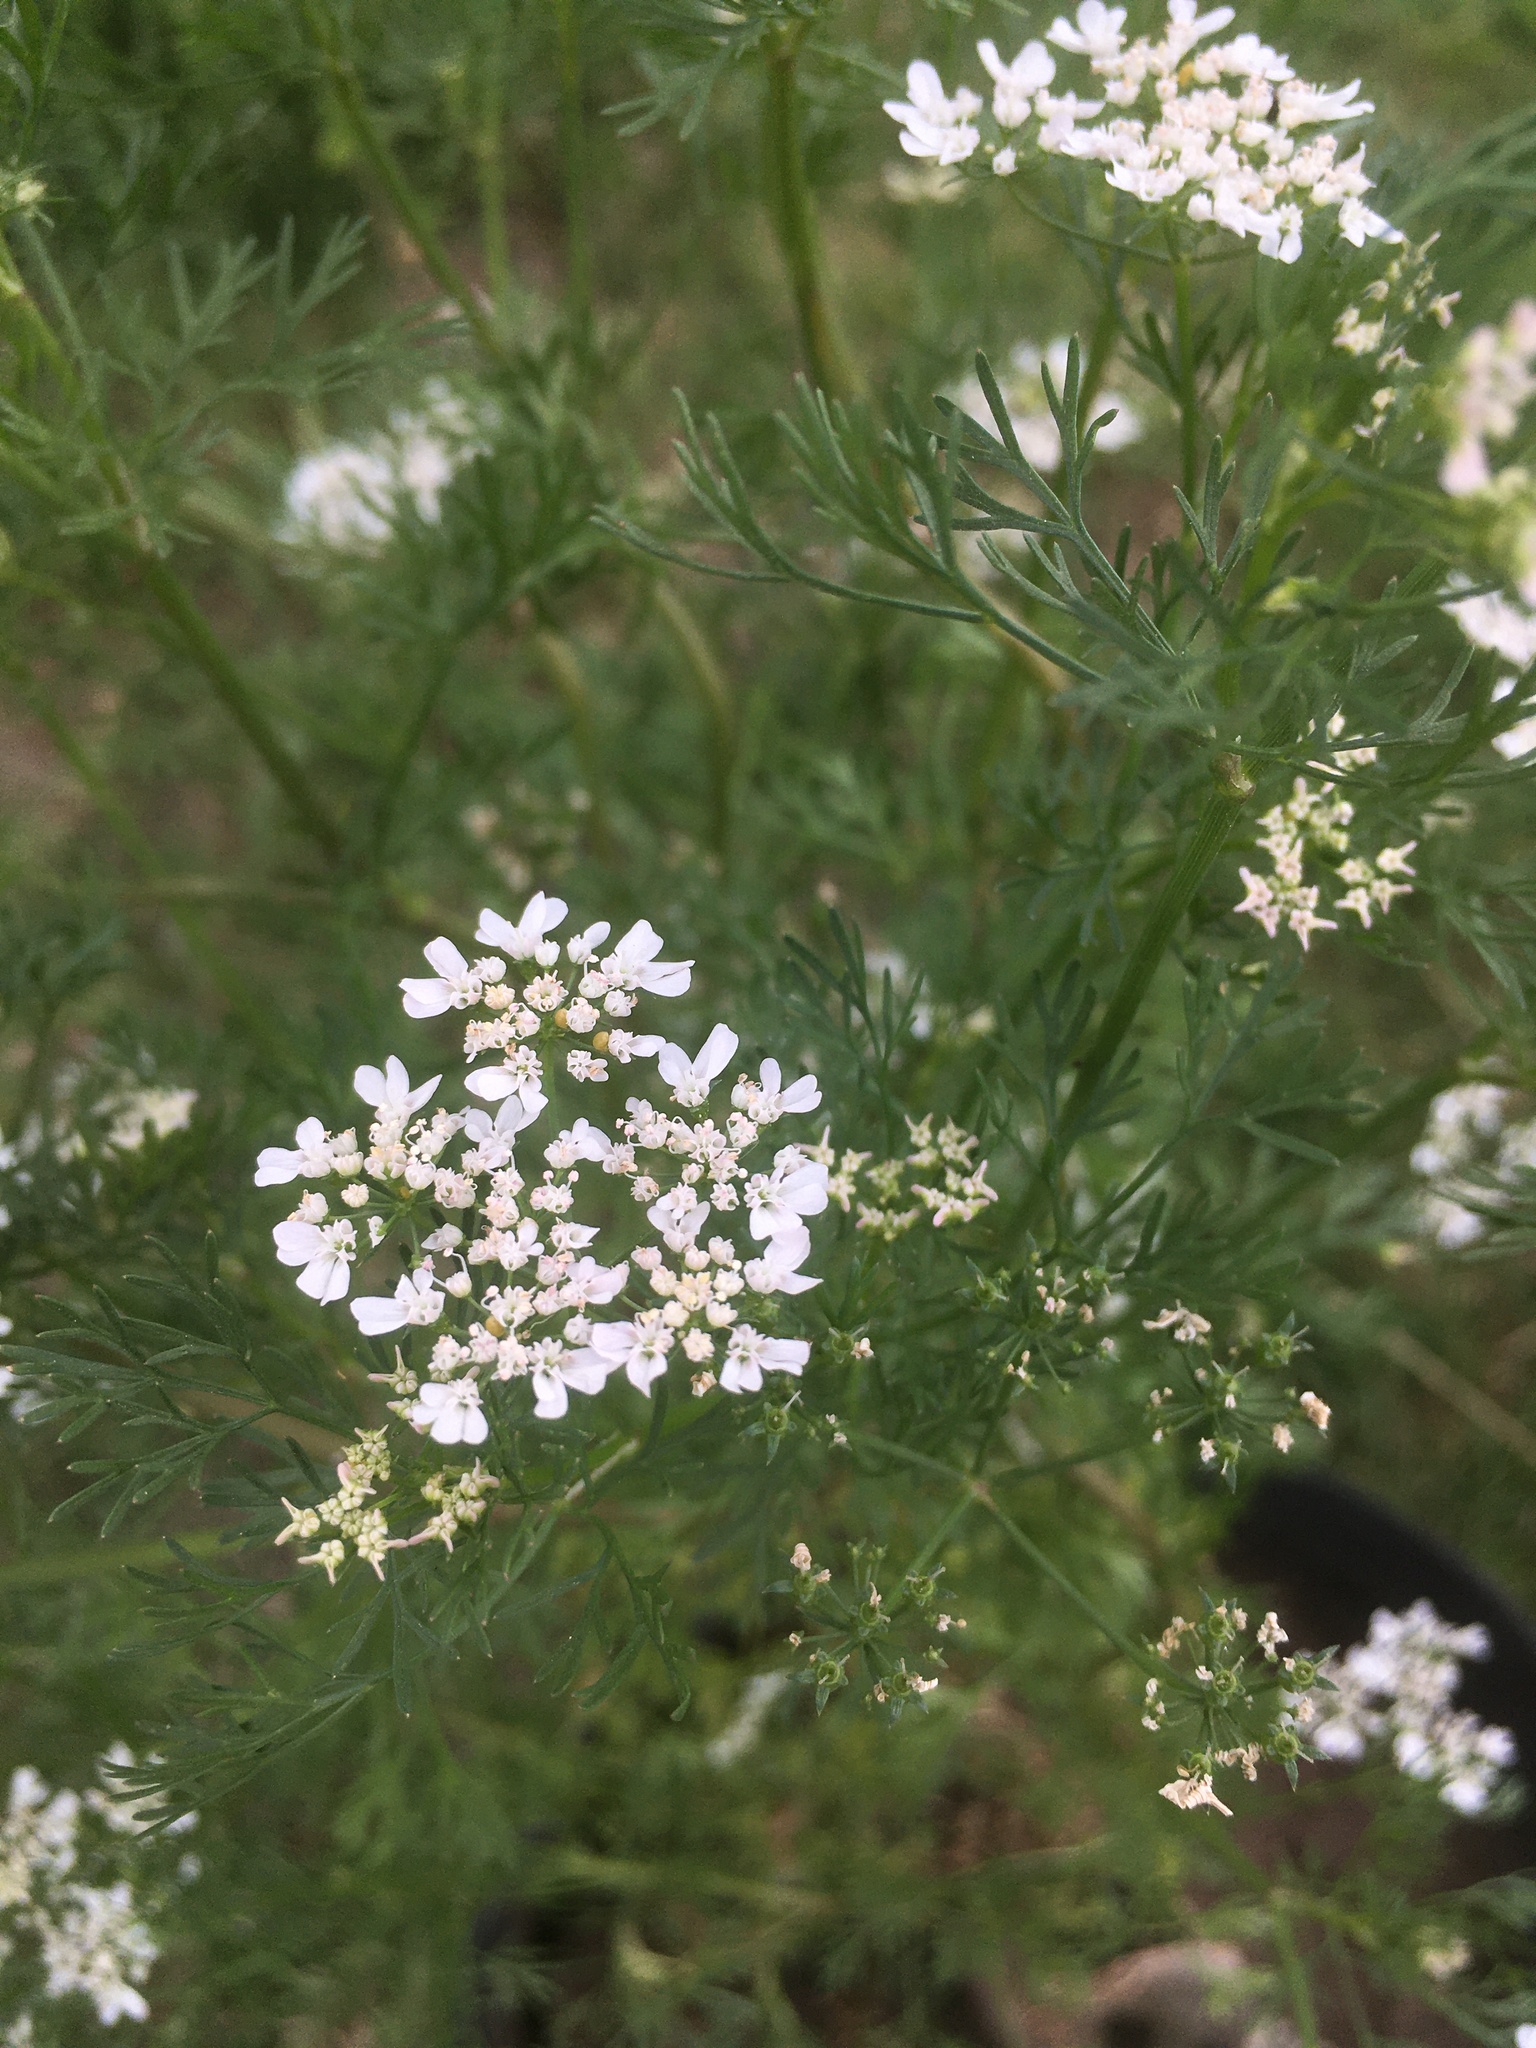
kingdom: Plantae
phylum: Tracheophyta
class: Magnoliopsida
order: Apiales
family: Apiaceae
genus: Coriandrum
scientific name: Coriandrum sativum
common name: Coriander
